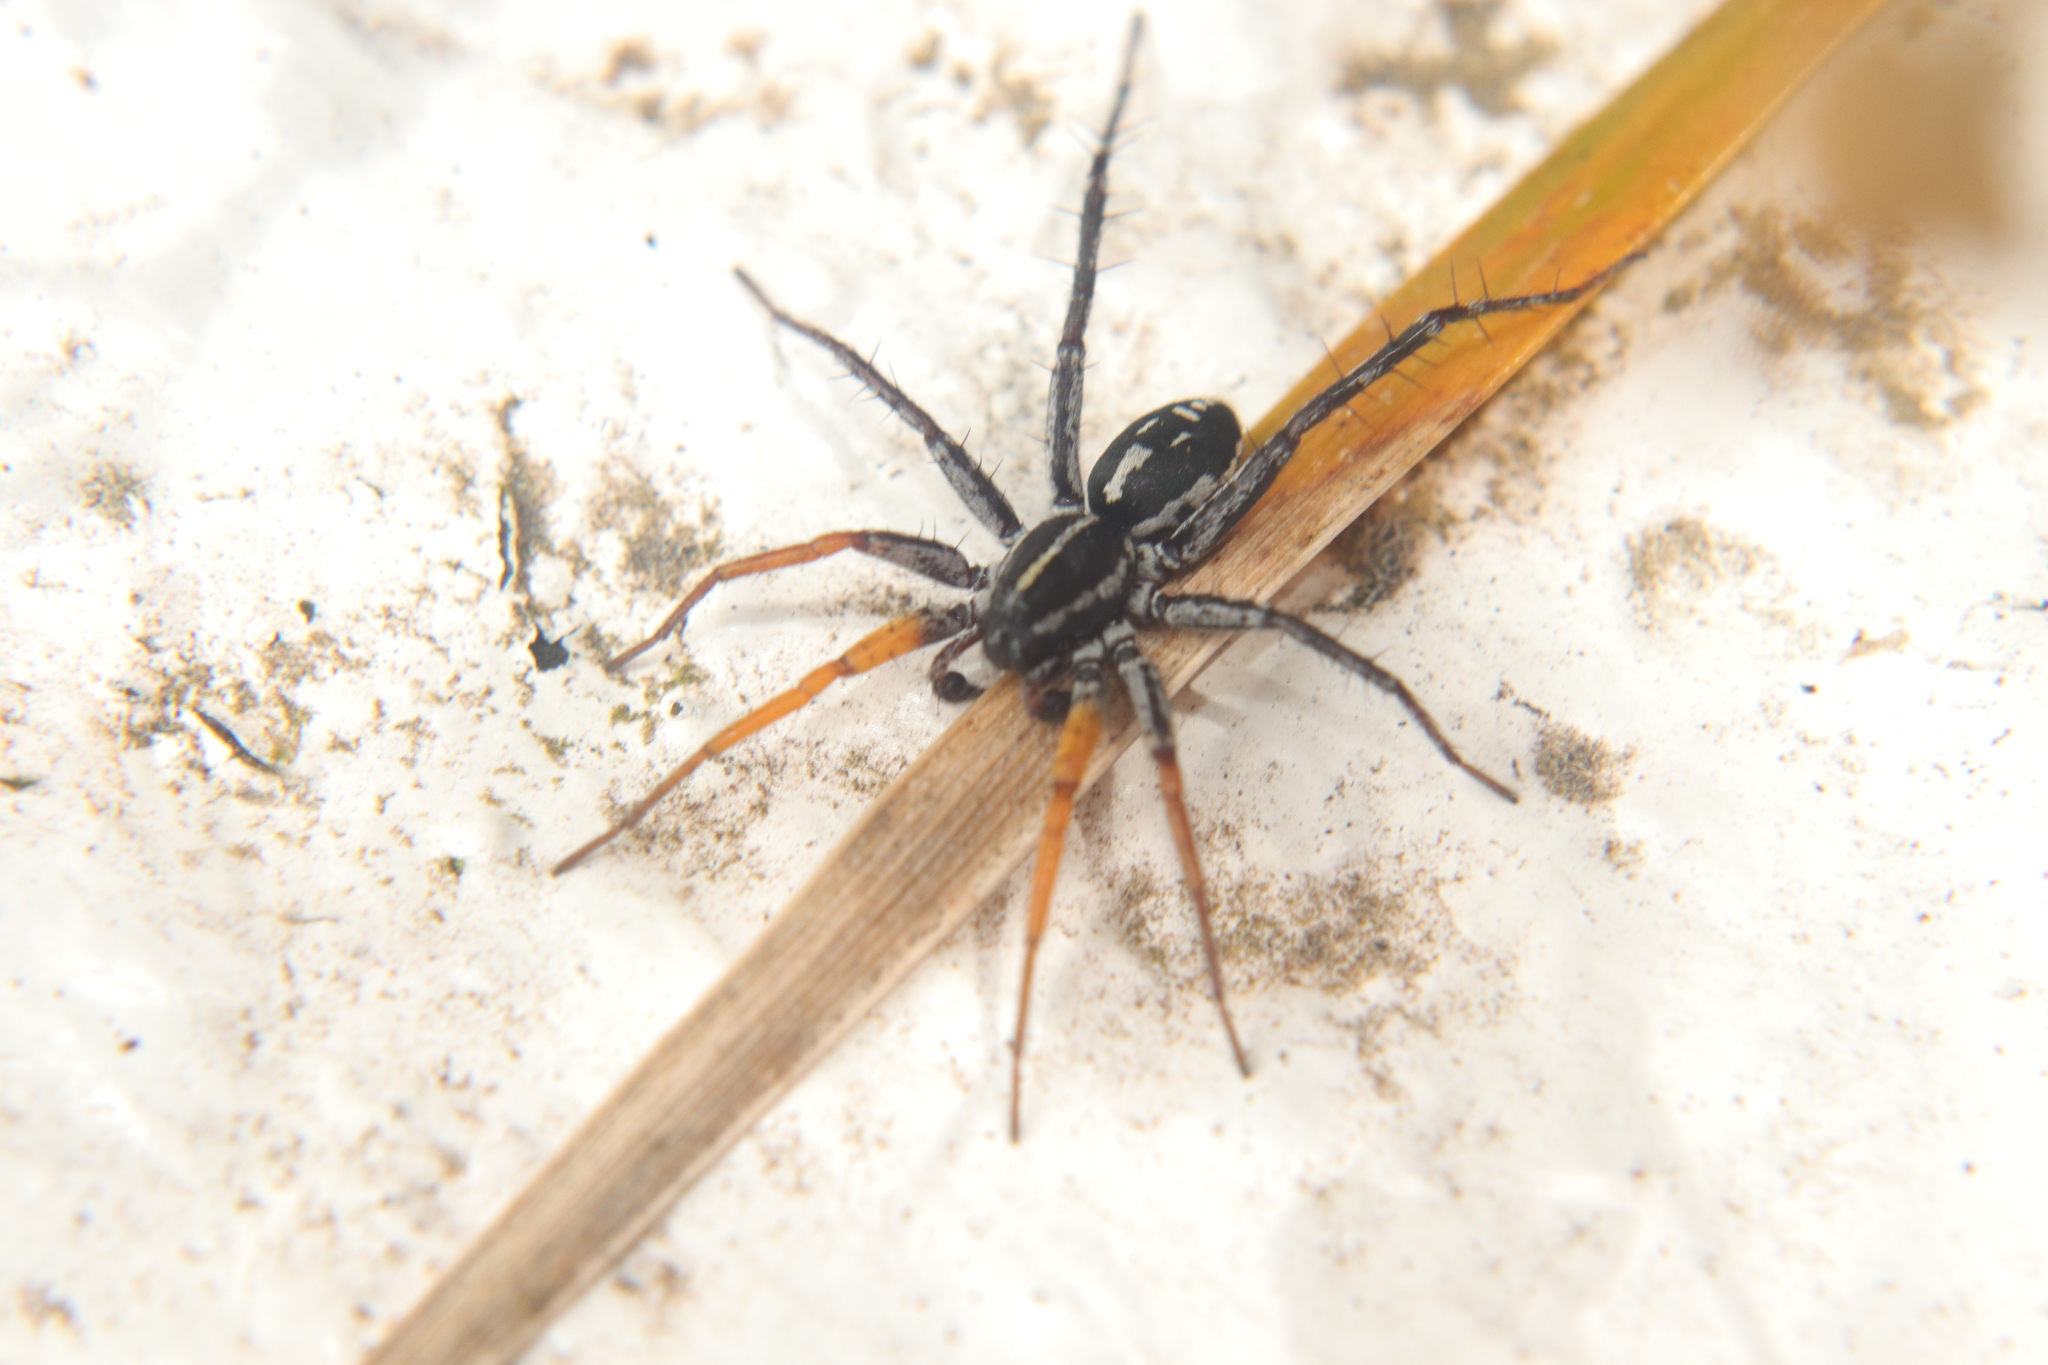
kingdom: Animalia
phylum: Arthropoda
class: Arachnida
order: Araneae
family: Corinnidae
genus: Nyssus
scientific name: Nyssus coloripes
